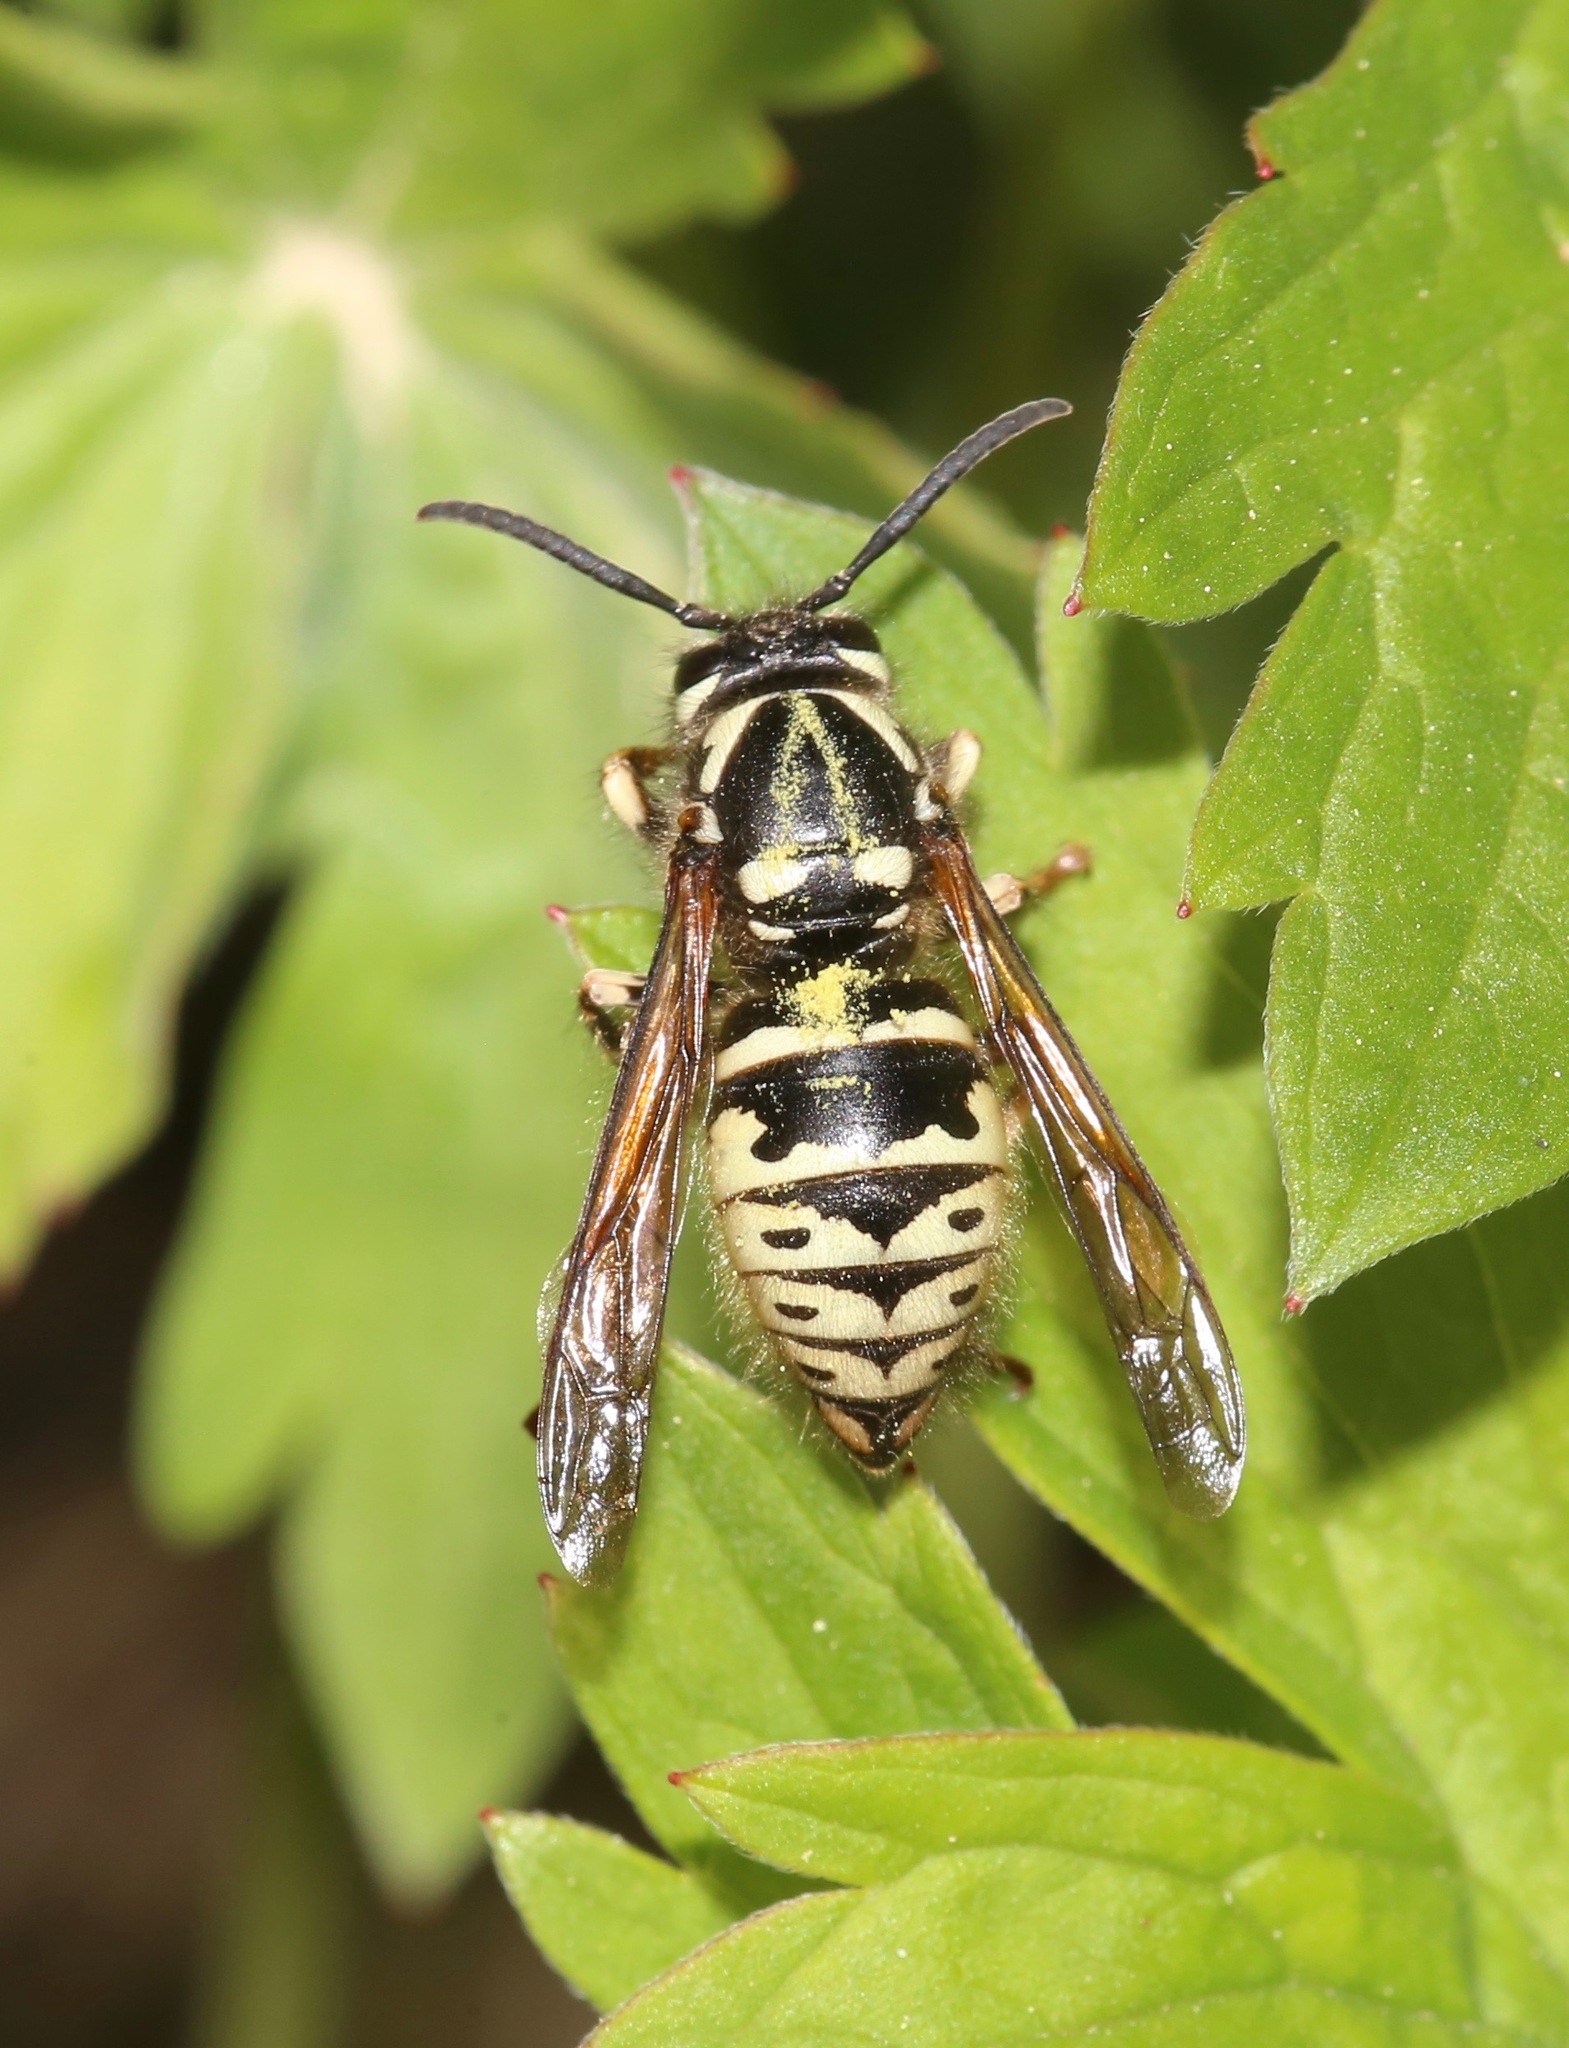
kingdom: Animalia
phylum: Arthropoda
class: Insecta
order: Hymenoptera
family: Vespidae
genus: Dolichovespula
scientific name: Dolichovespula adulterina
